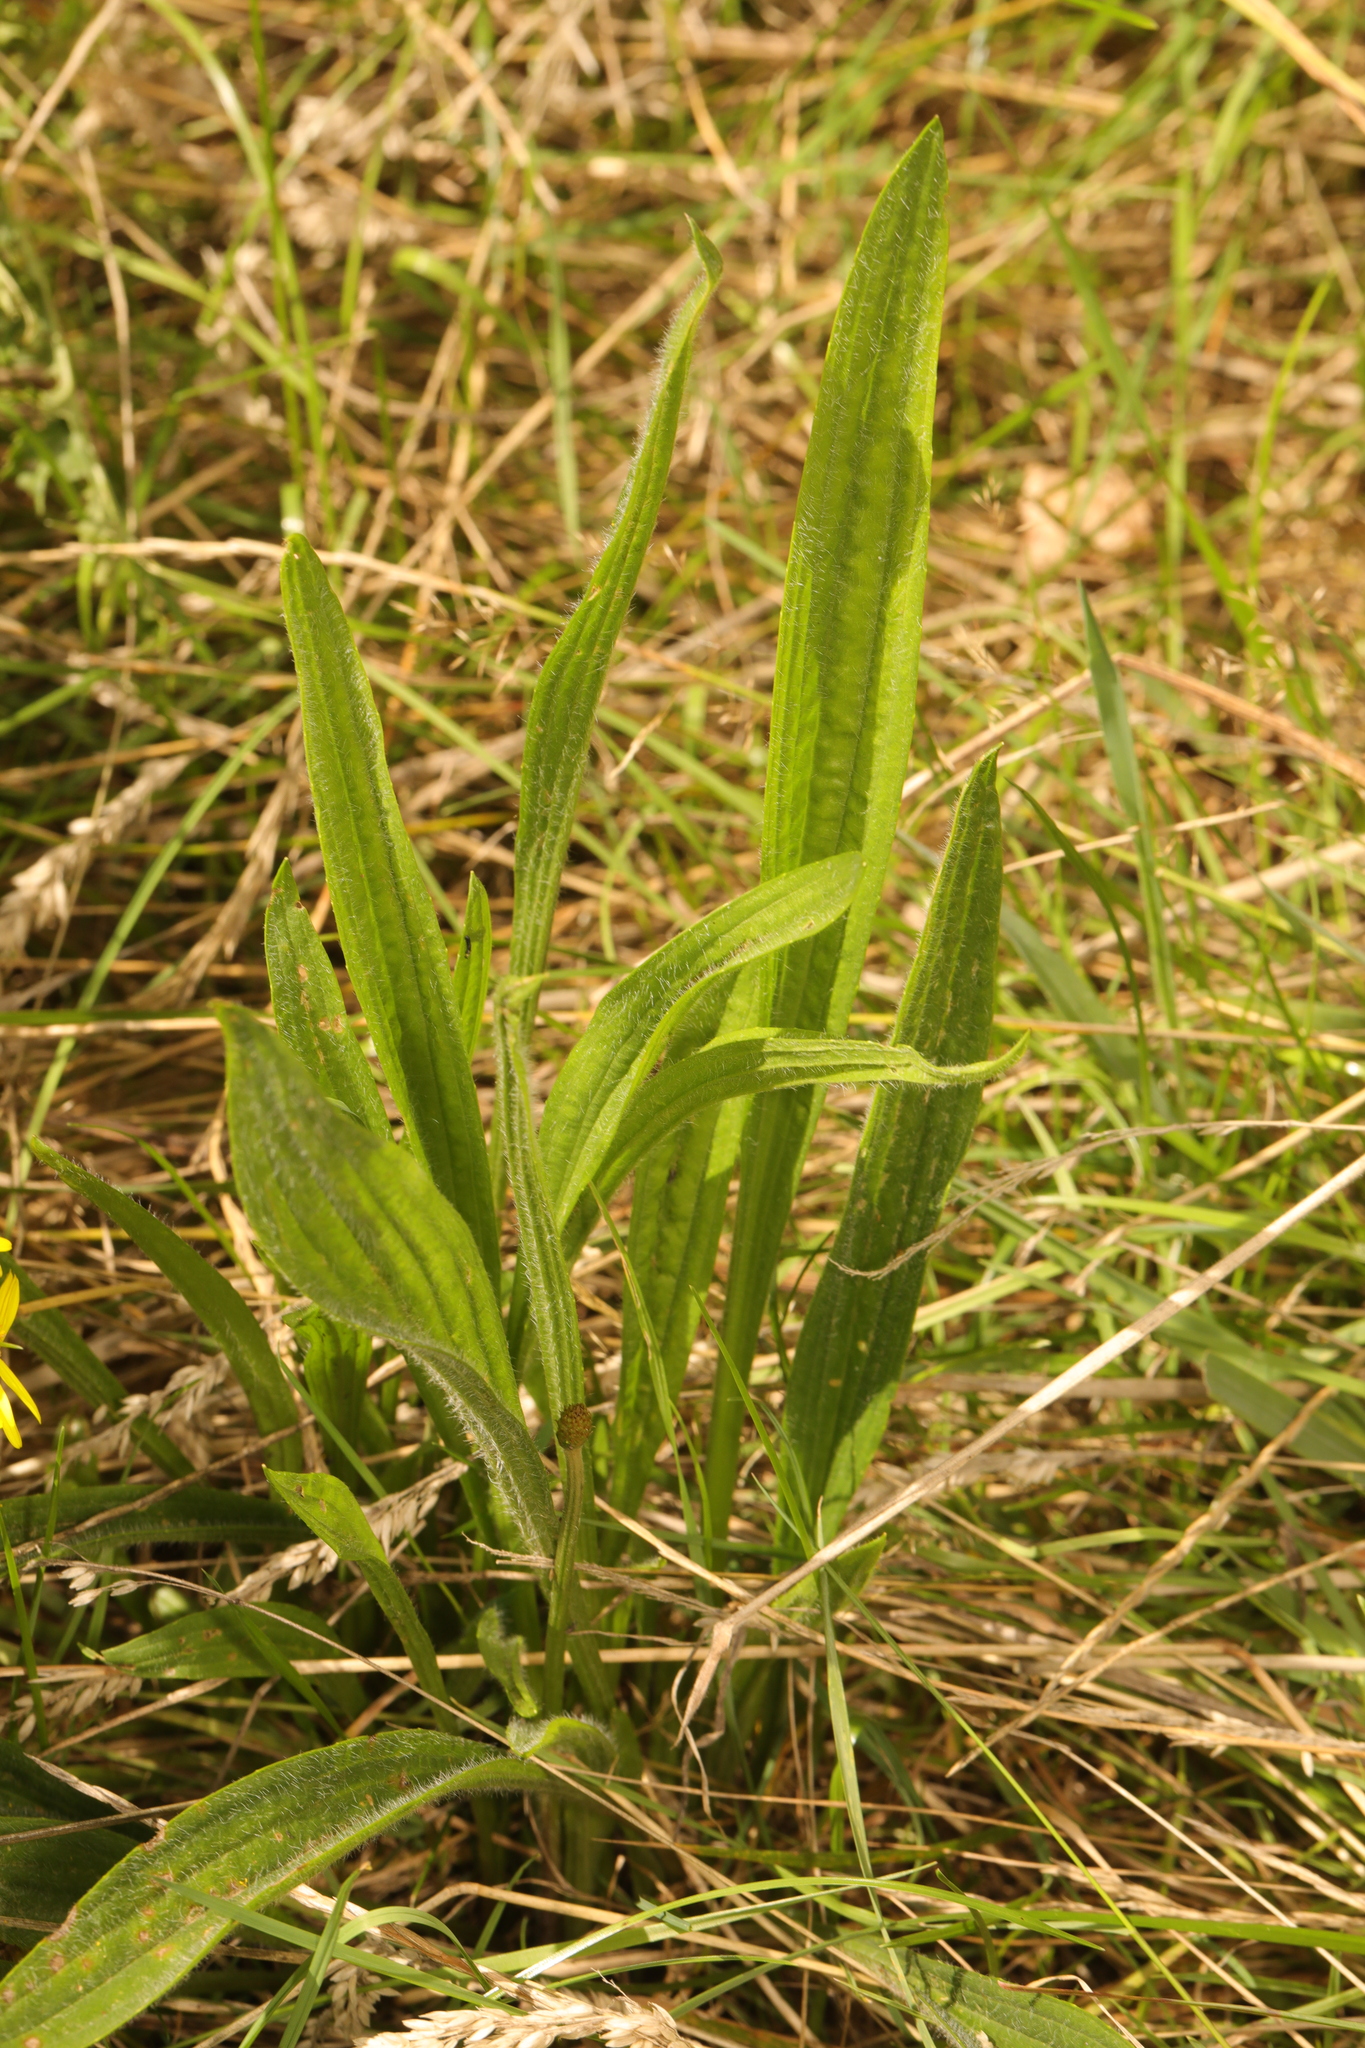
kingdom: Plantae
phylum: Tracheophyta
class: Magnoliopsida
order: Lamiales
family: Plantaginaceae
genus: Plantago
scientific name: Plantago lanceolata
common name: Ribwort plantain
